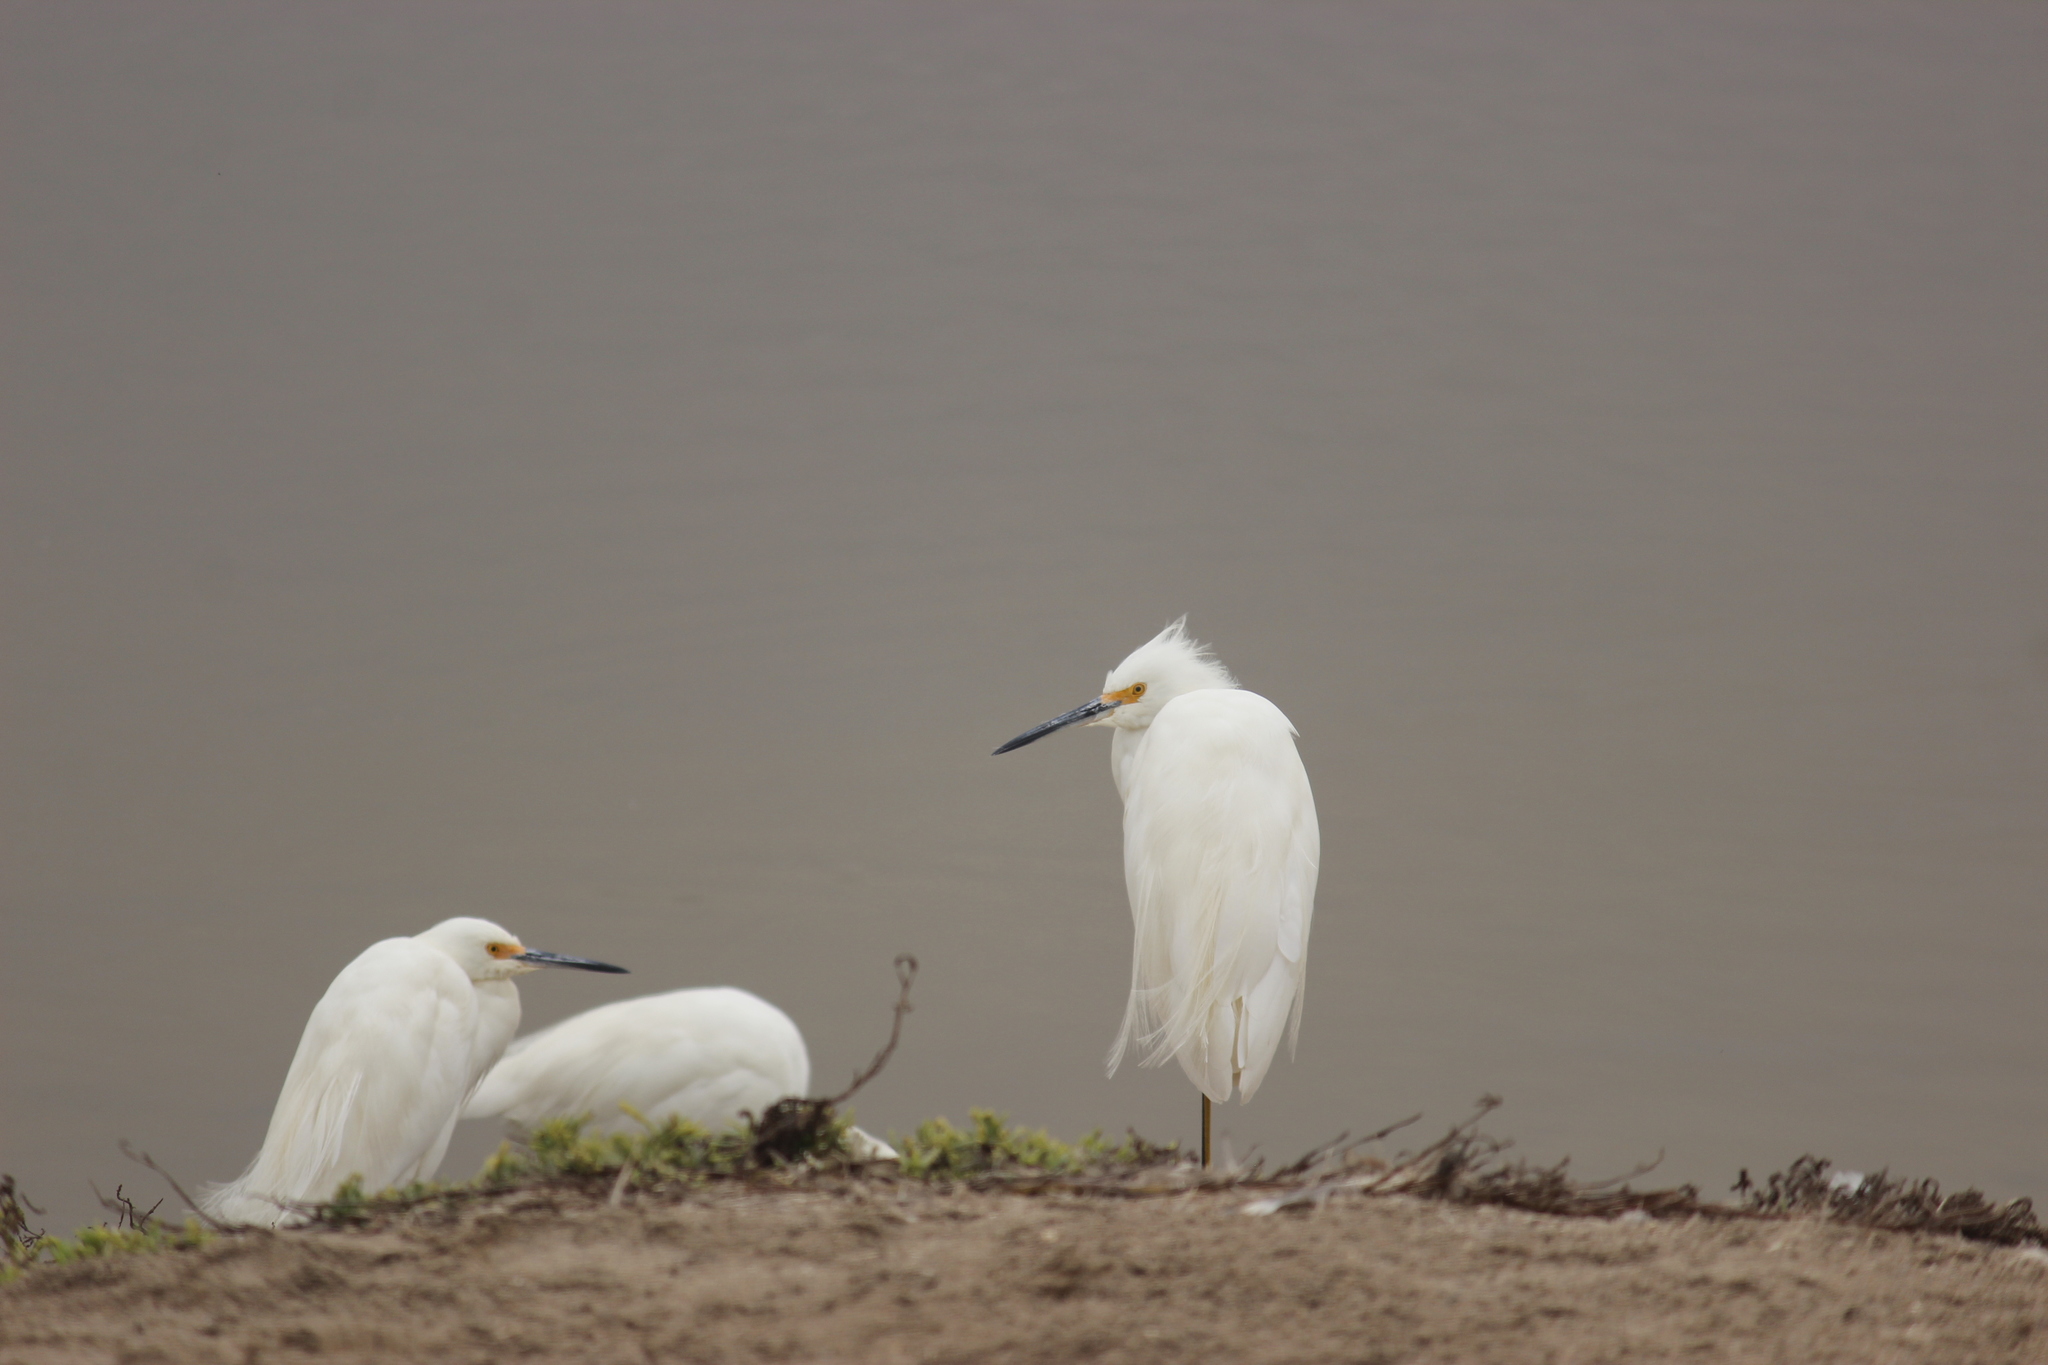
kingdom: Animalia
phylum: Chordata
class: Aves
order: Pelecaniformes
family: Ardeidae
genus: Egretta
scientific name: Egretta thula
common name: Snowy egret
